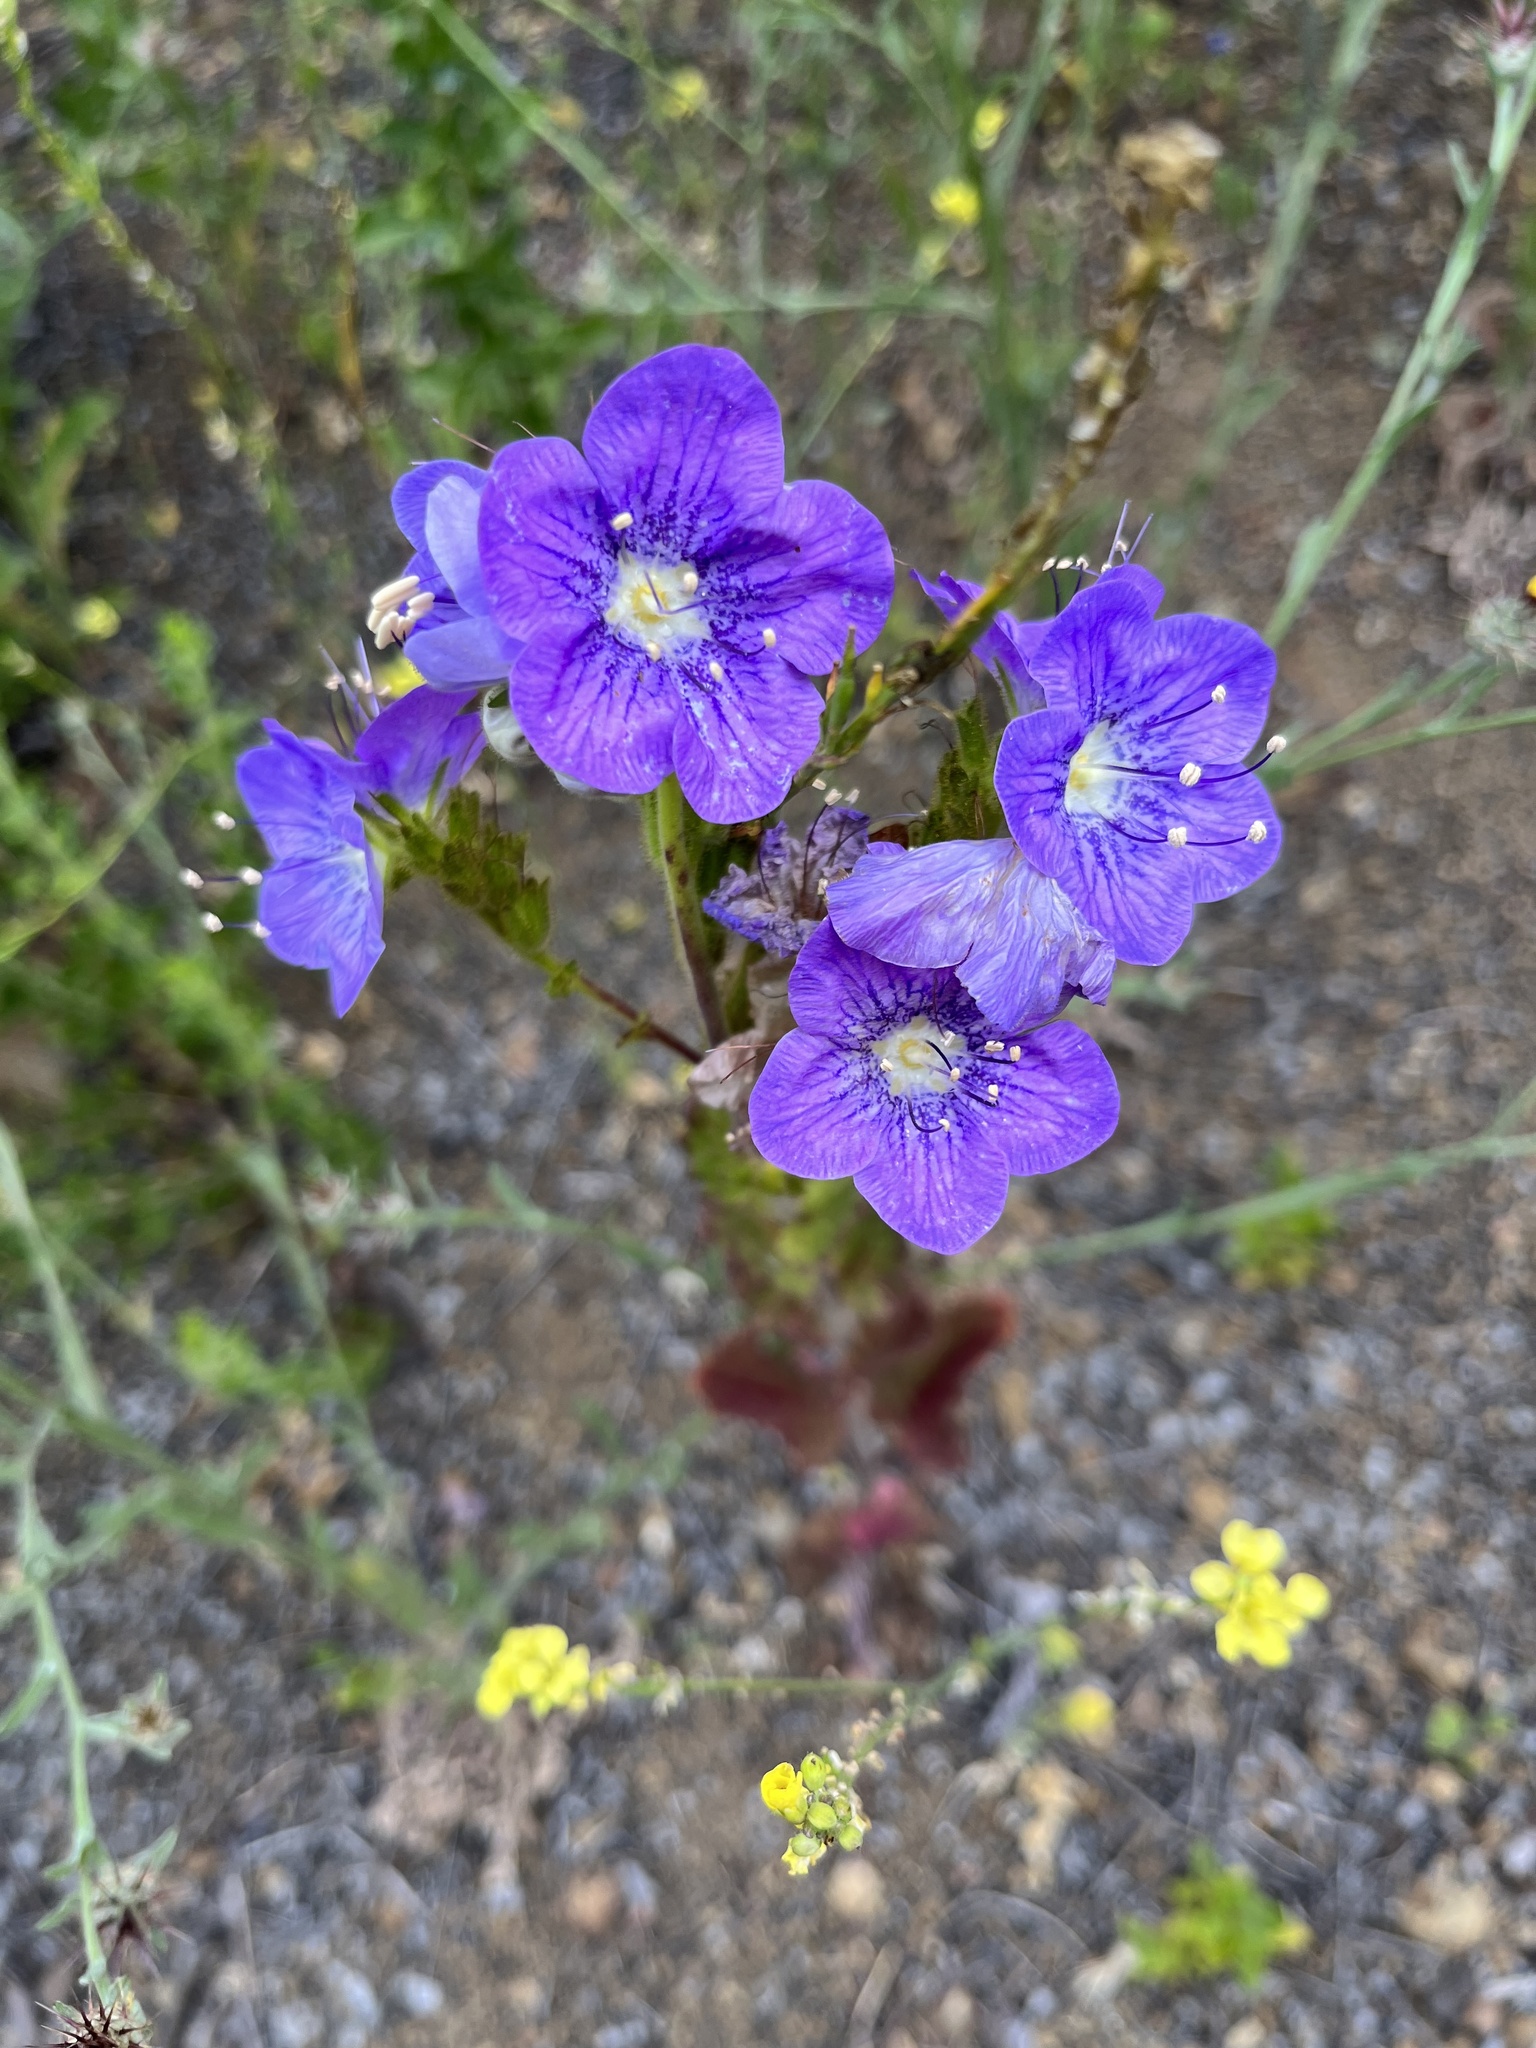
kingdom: Plantae
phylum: Tracheophyta
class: Magnoliopsida
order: Boraginales
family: Hydrophyllaceae
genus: Phacelia
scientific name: Phacelia grandiflora
